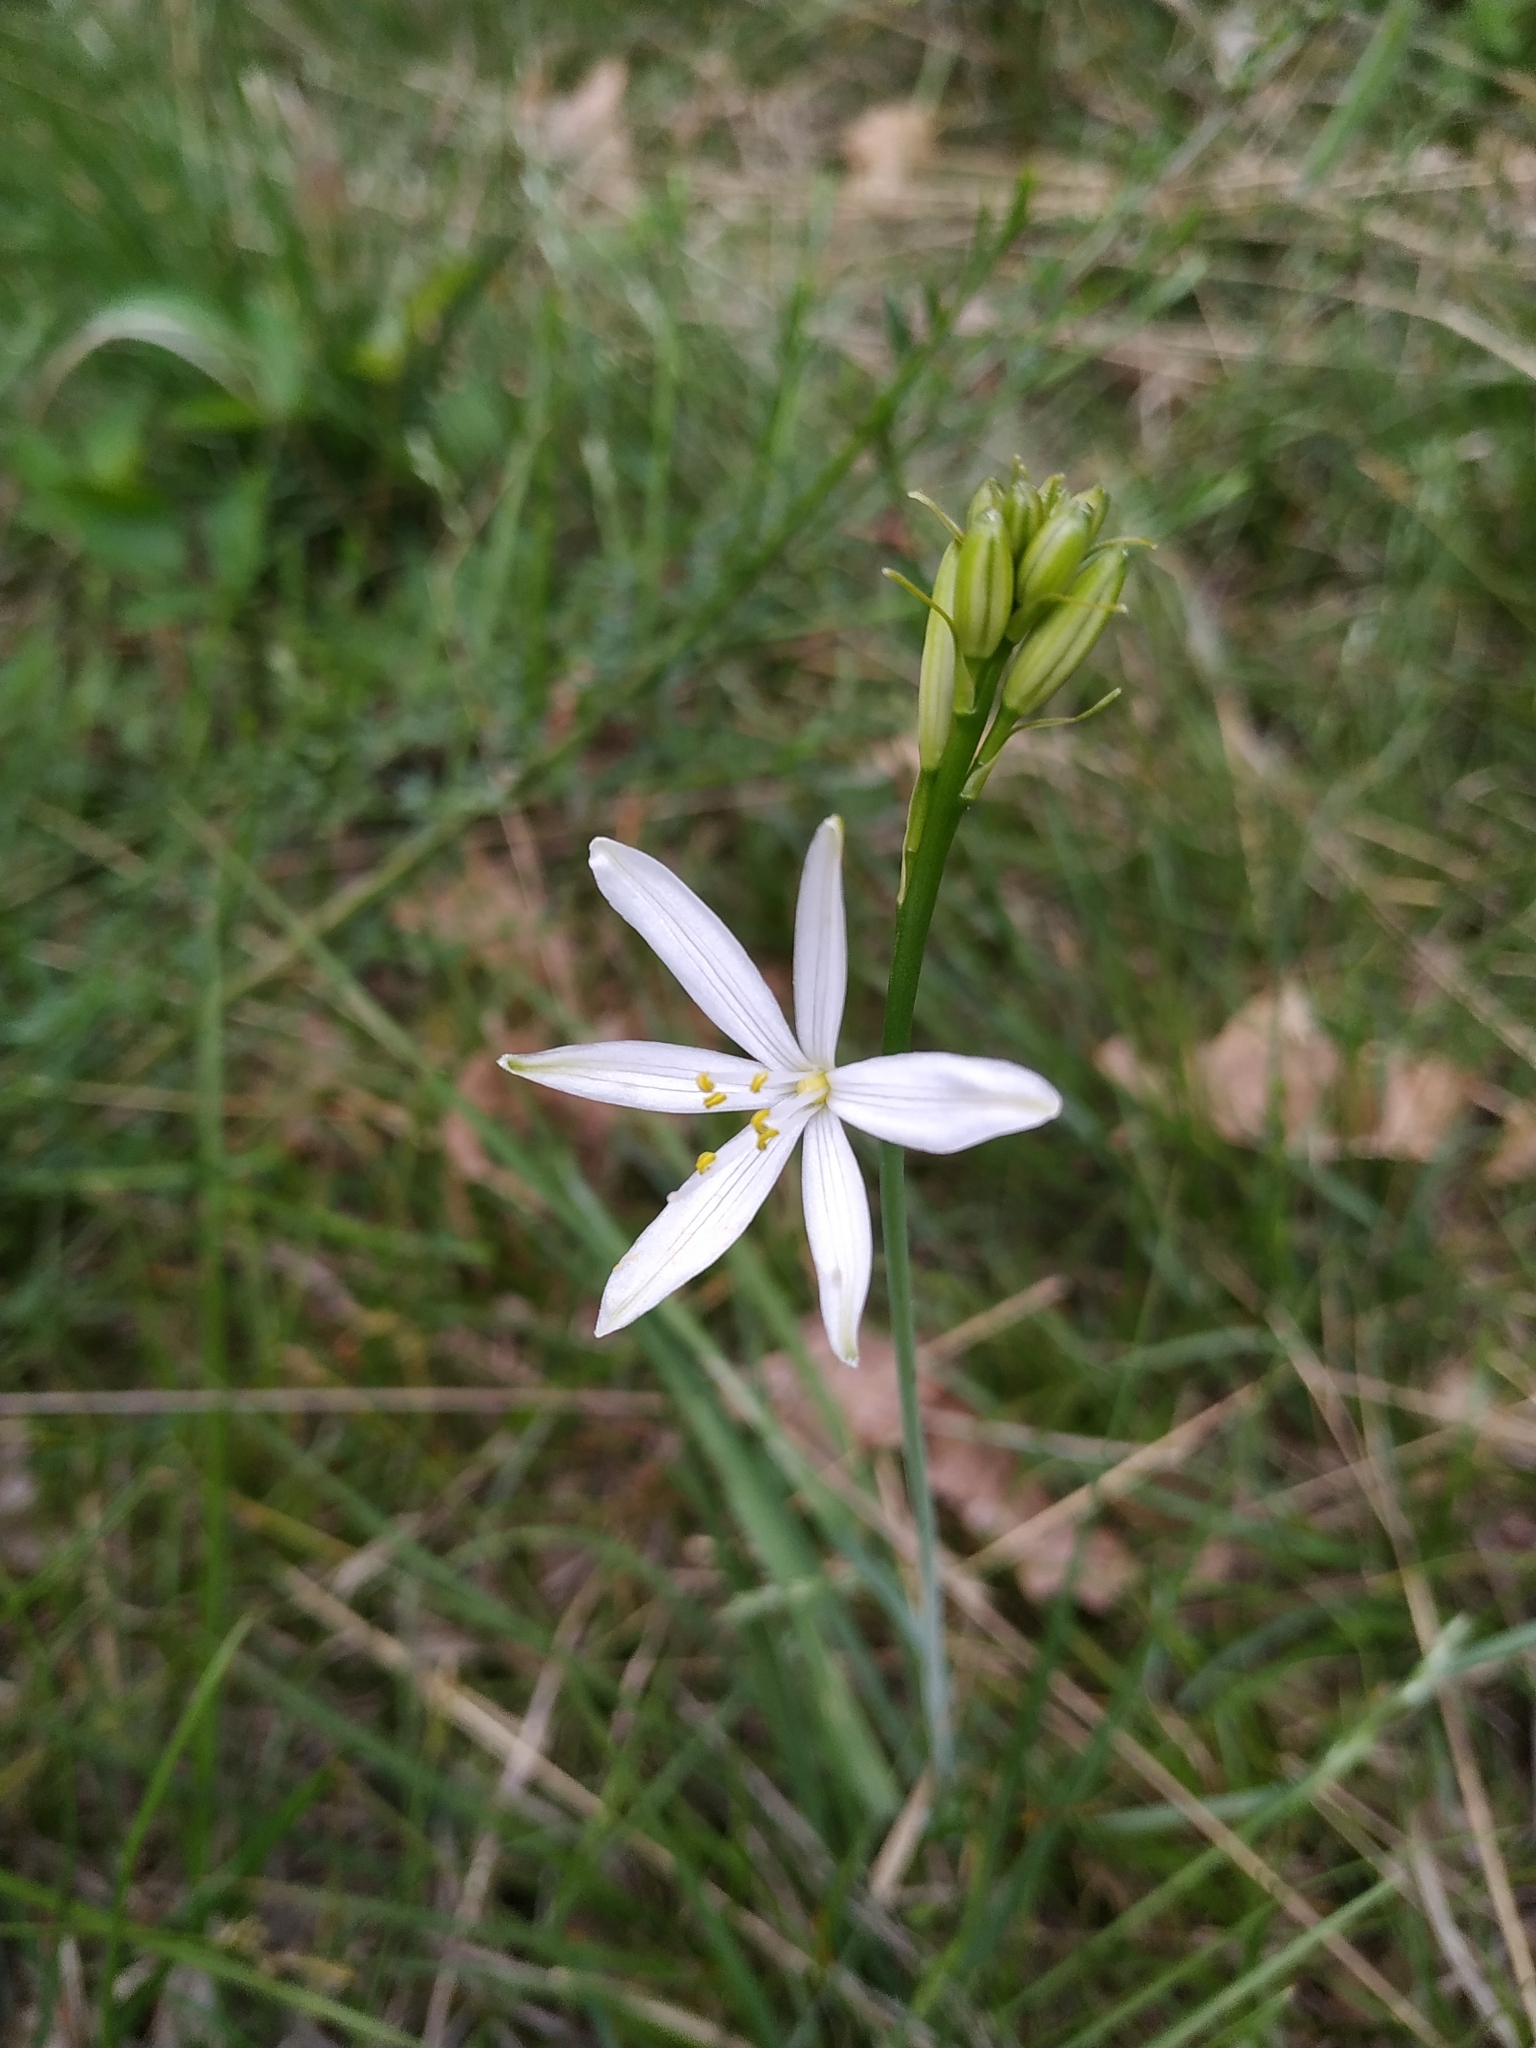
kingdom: Plantae
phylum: Tracheophyta
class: Liliopsida
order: Asparagales
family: Asparagaceae
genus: Anthericum
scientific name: Anthericum liliago
